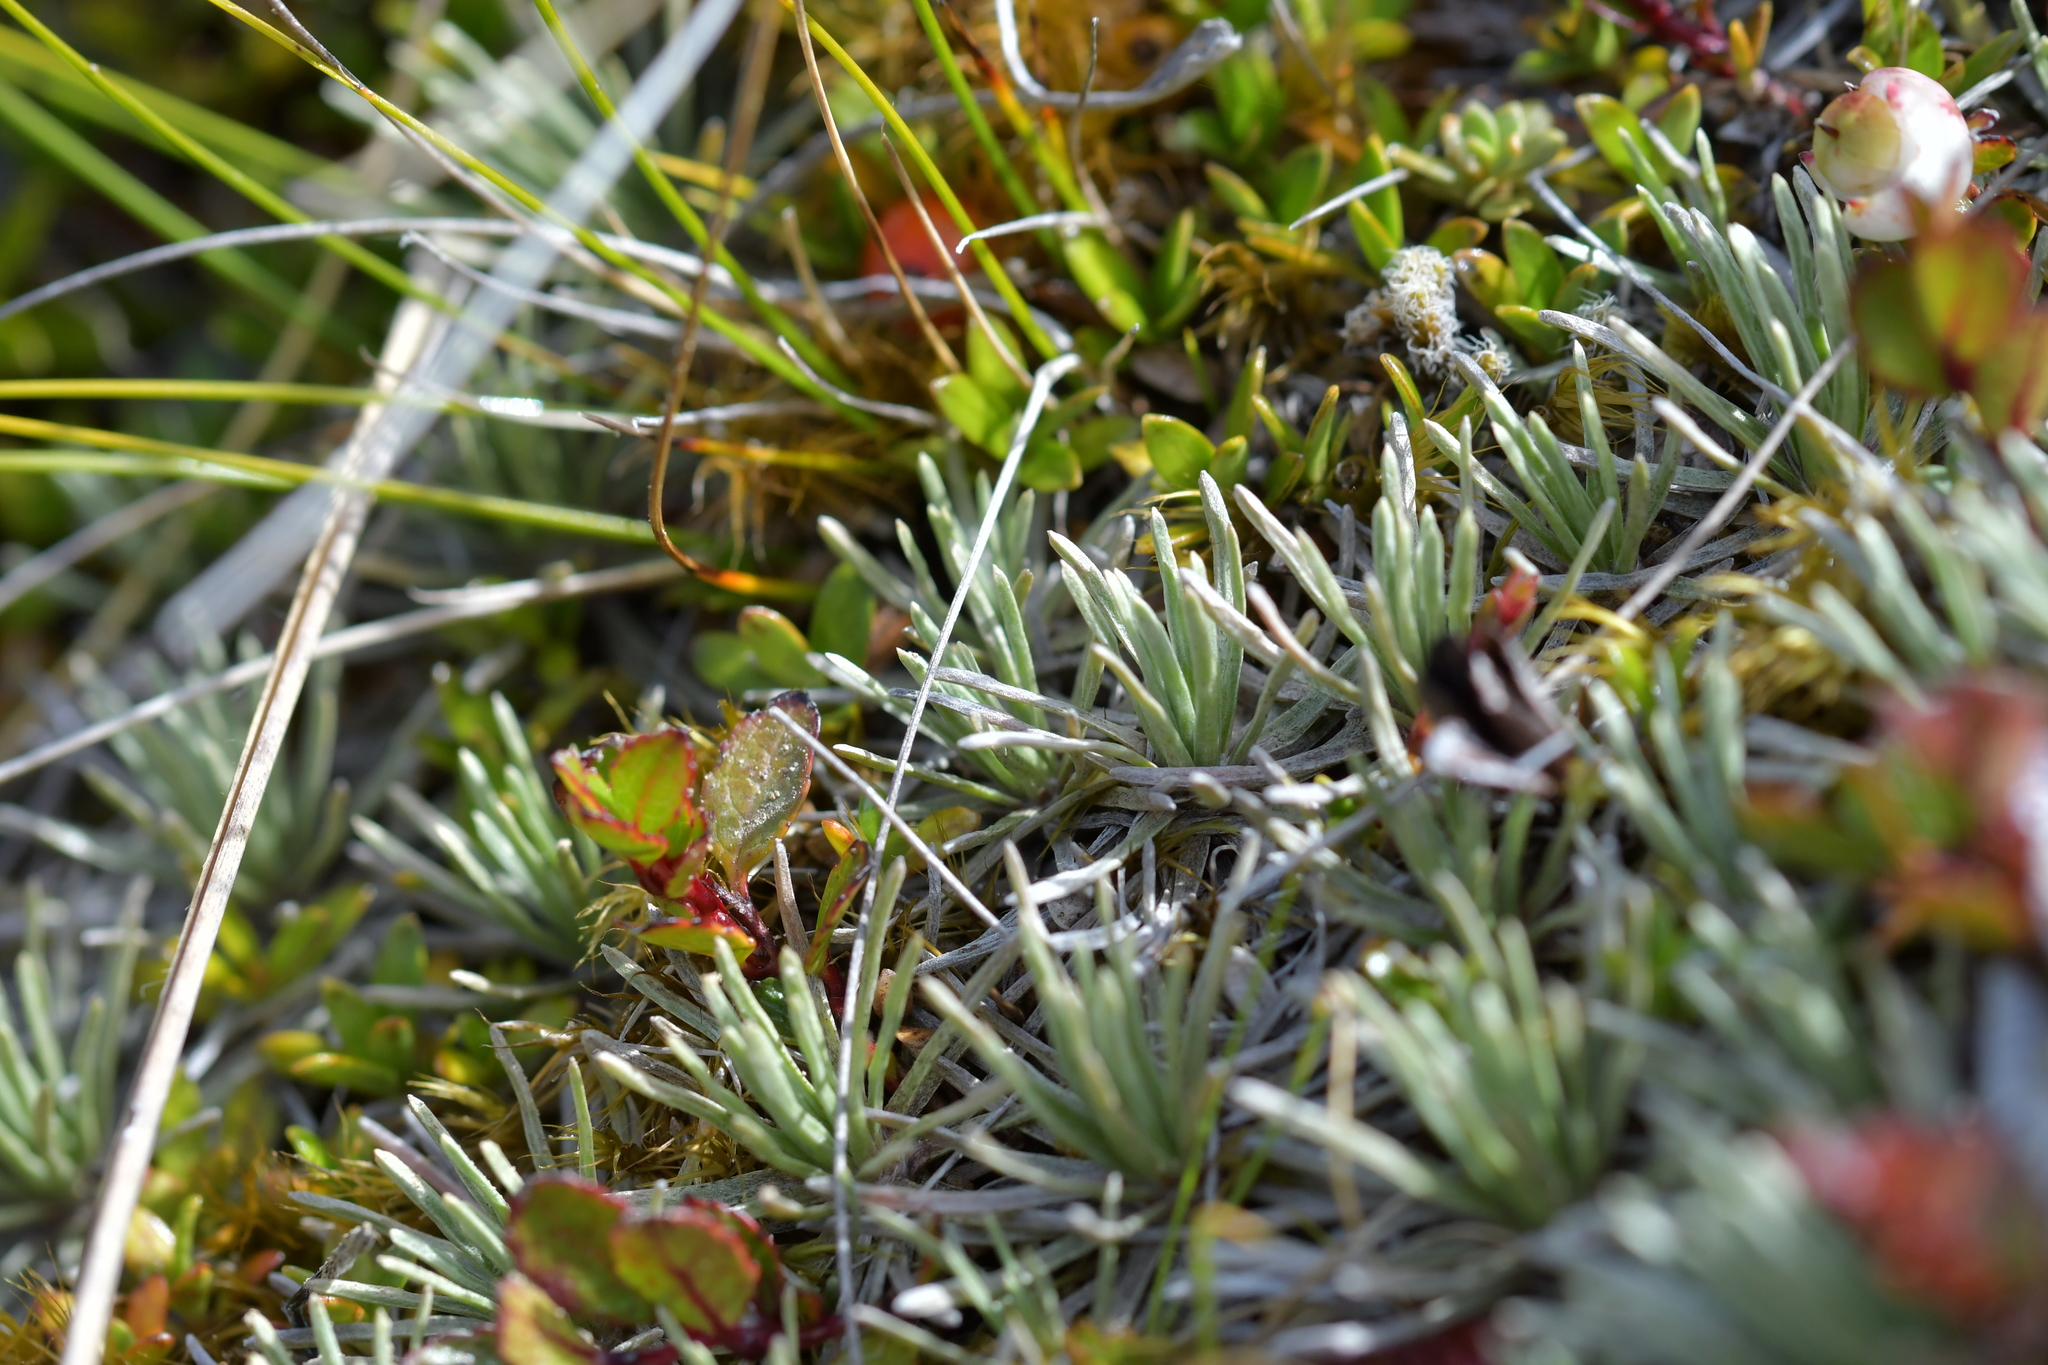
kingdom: Plantae
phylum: Tracheophyta
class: Magnoliopsida
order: Asterales
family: Asteraceae
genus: Celmisia
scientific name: Celmisia sessiliflora
